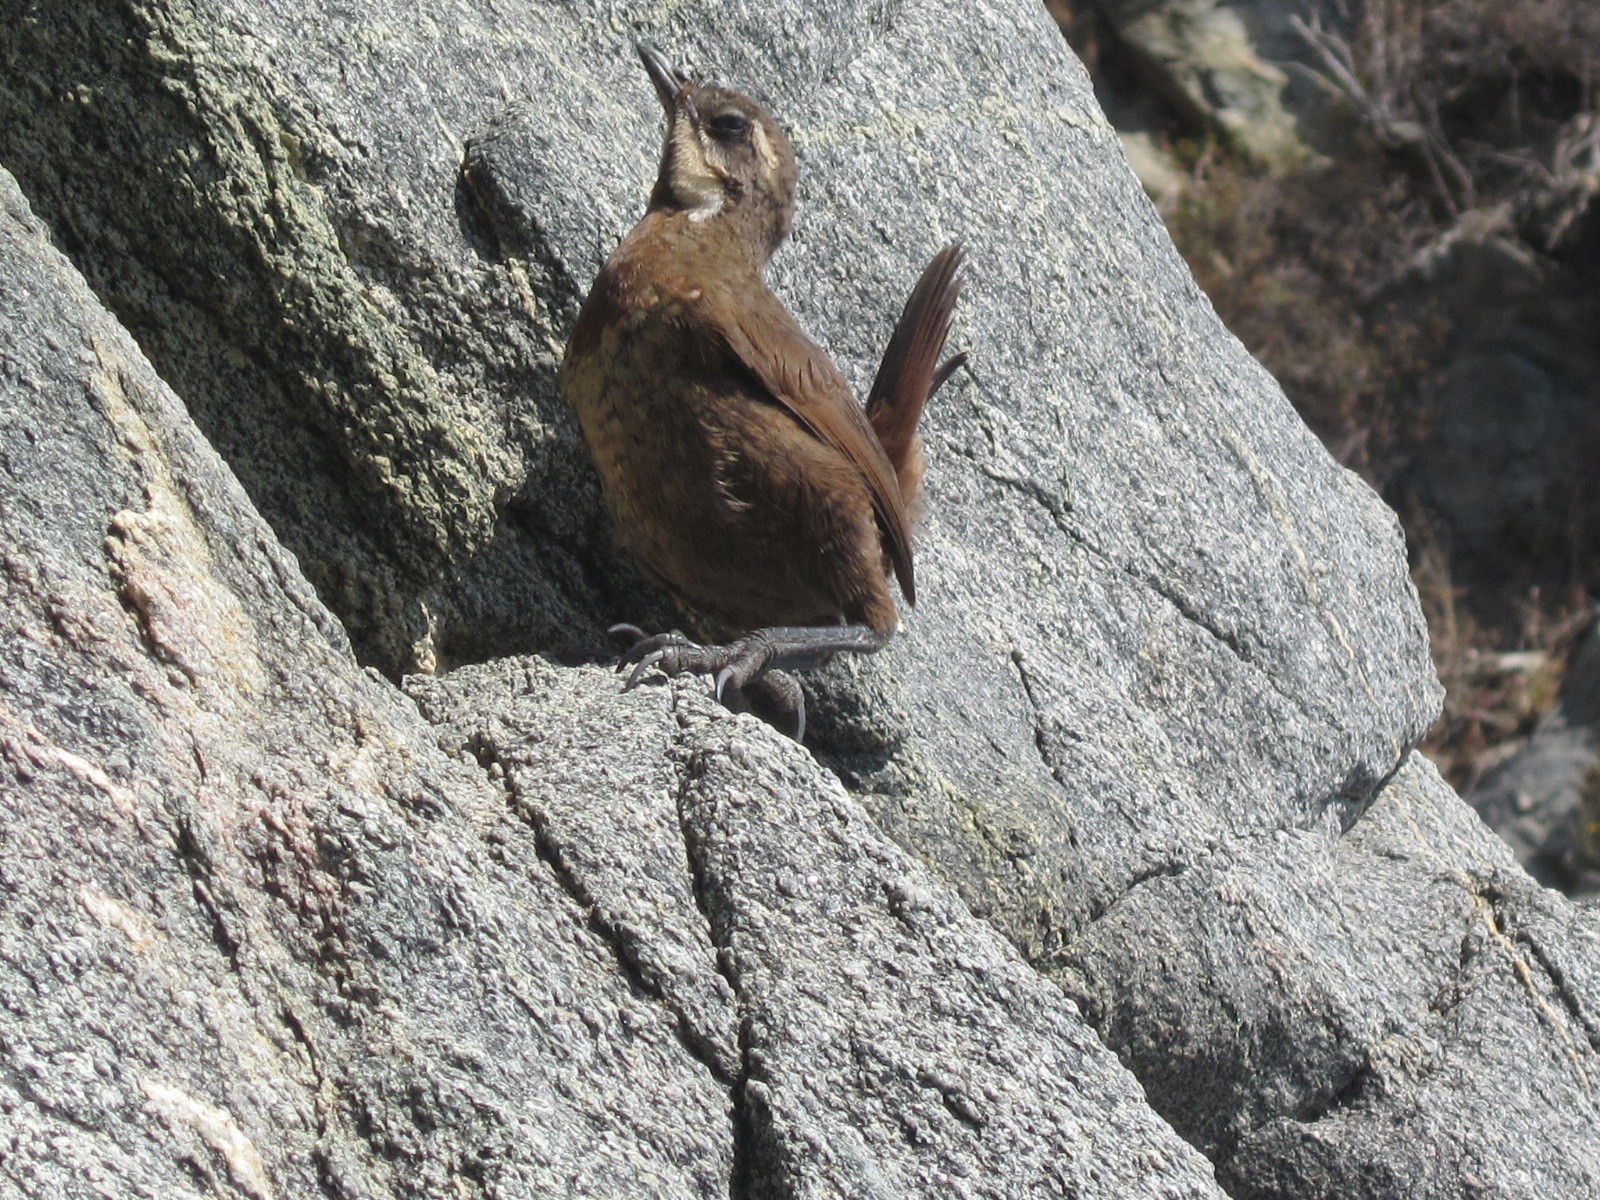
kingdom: Animalia
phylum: Chordata
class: Aves
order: Passeriformes
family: Rhinocryptidae
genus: Pteroptochos
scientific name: Pteroptochos megapodius
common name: Moustached turca
